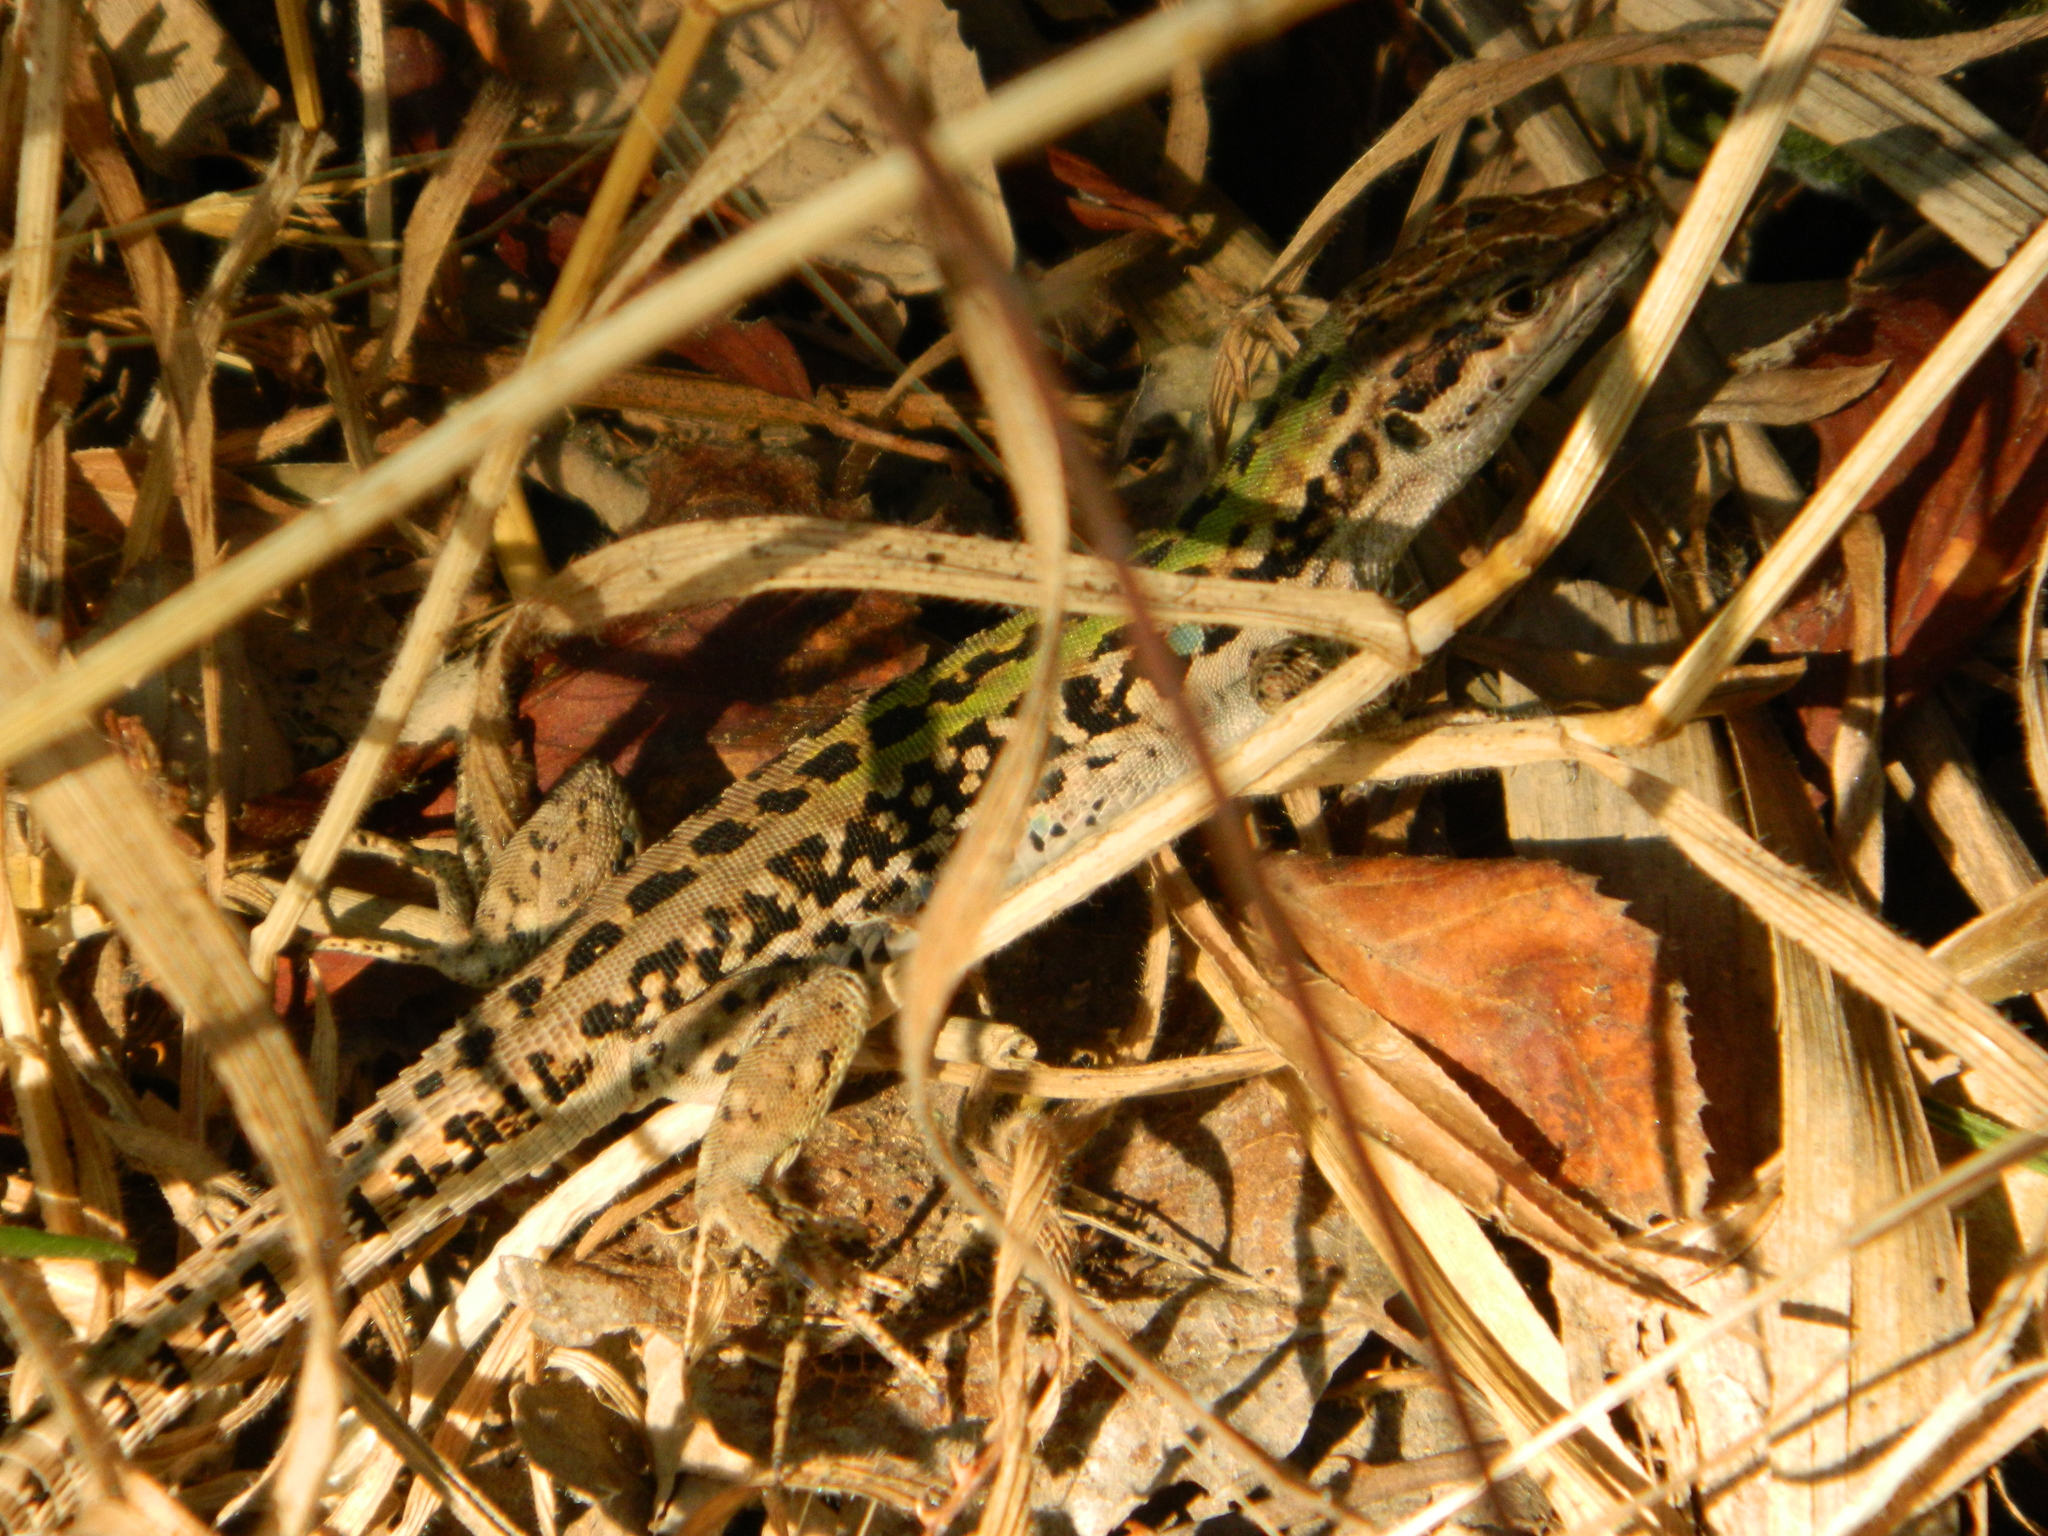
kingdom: Animalia
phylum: Chordata
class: Squamata
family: Lacertidae
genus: Podarcis
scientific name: Podarcis siculus
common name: Italian wall lizard
